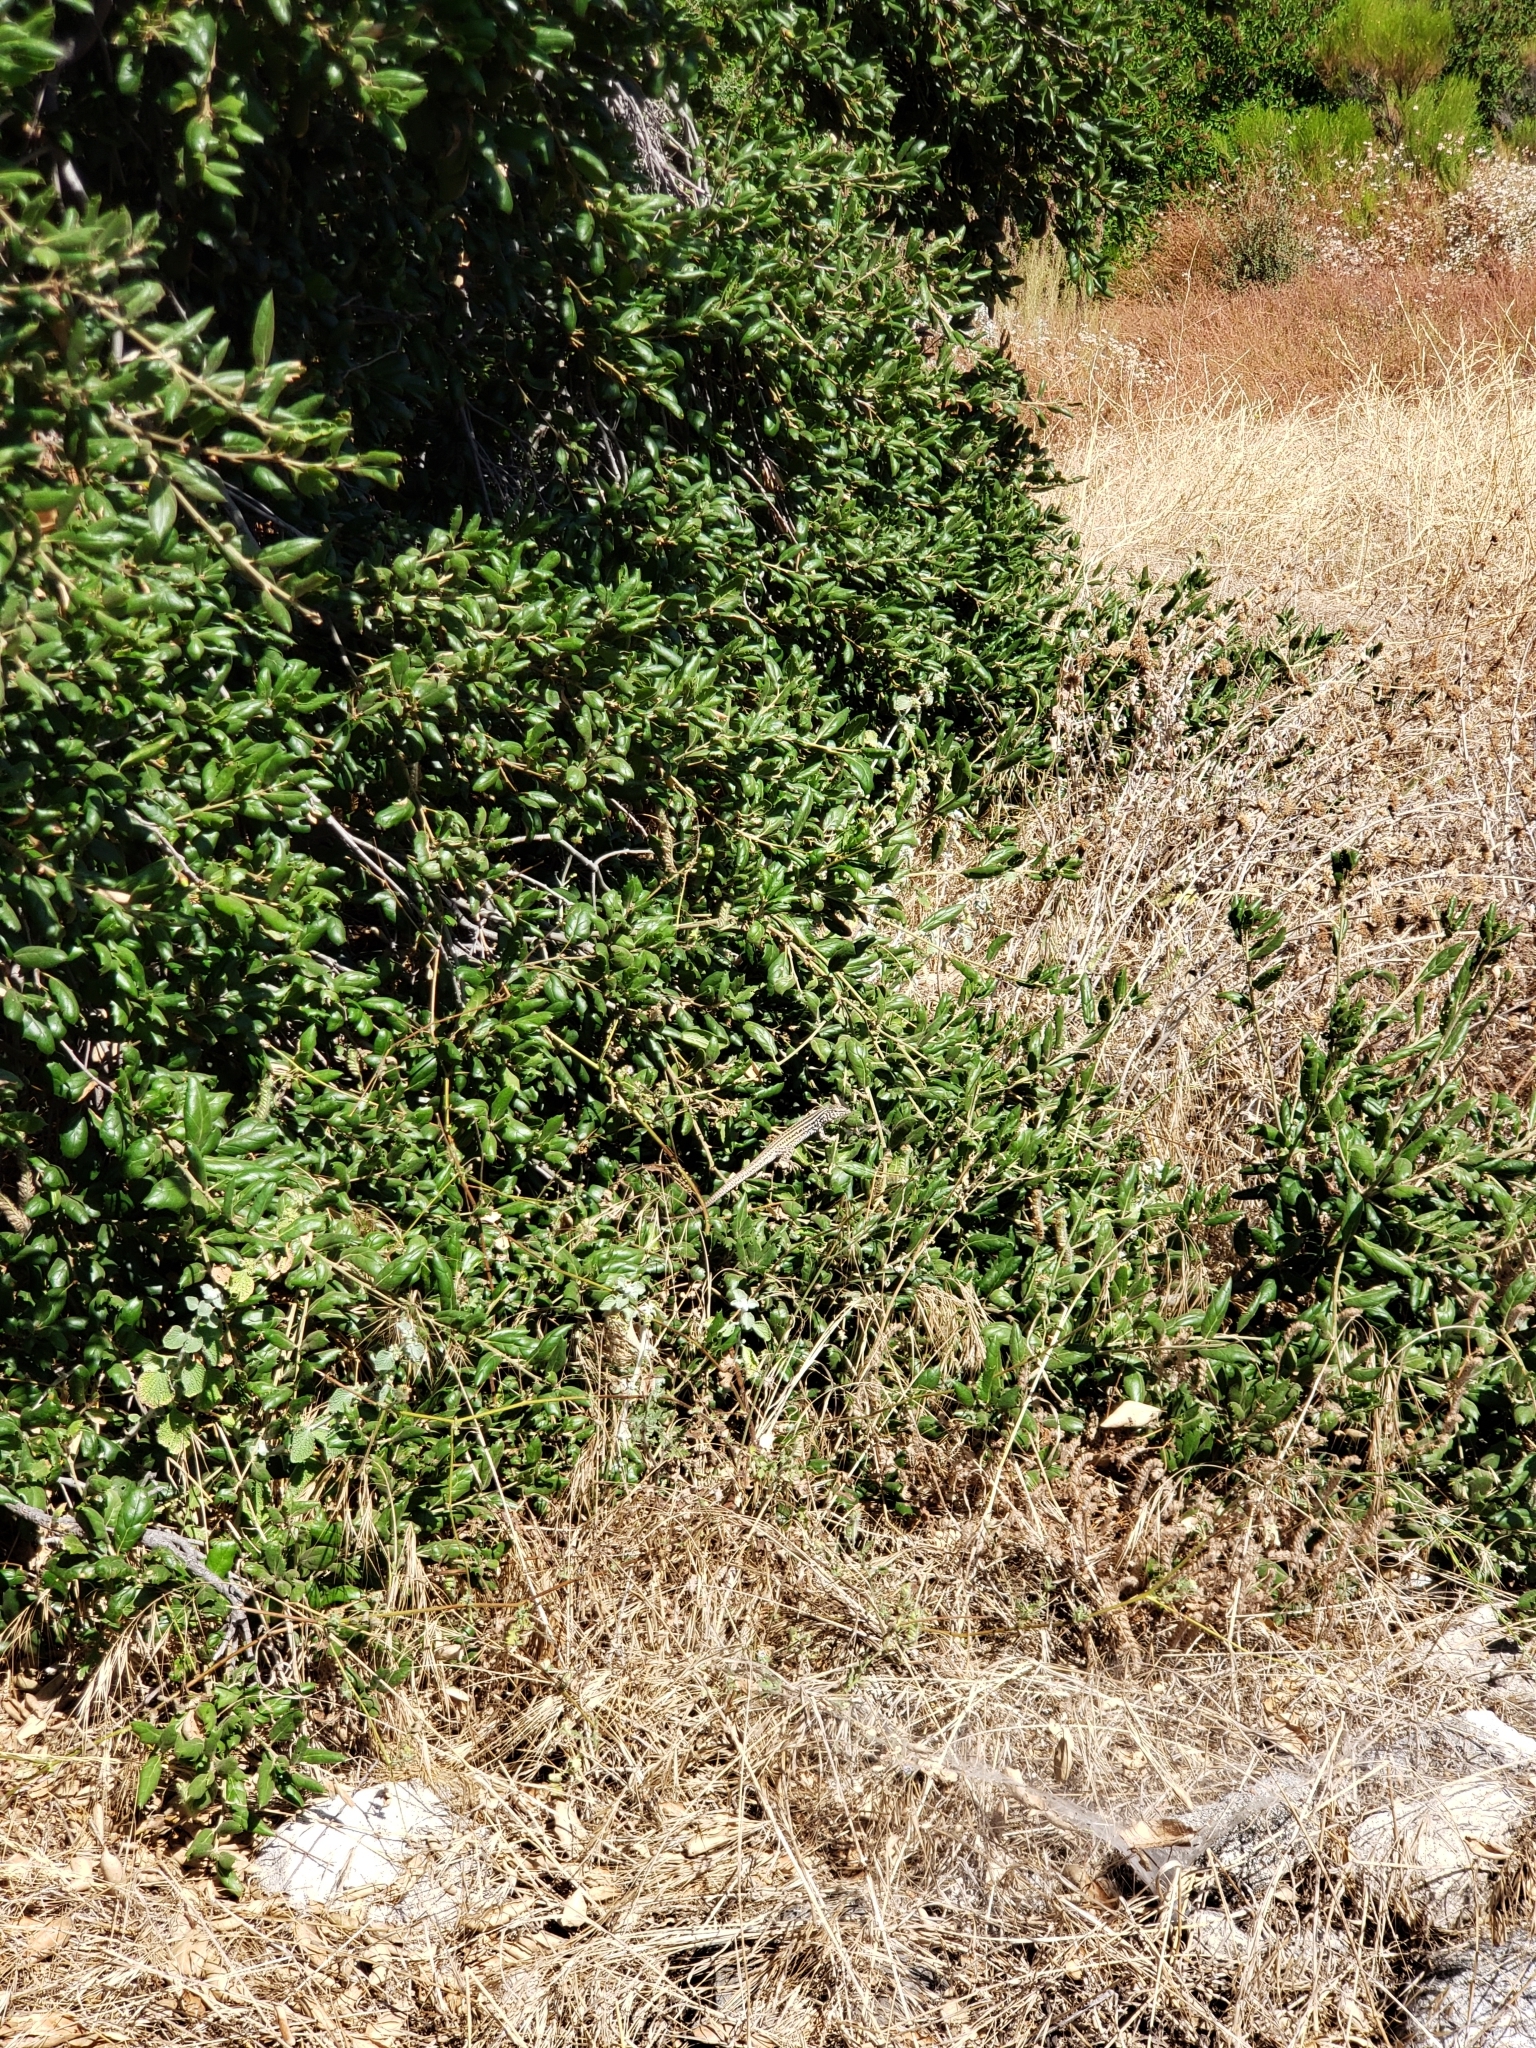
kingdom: Animalia
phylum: Chordata
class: Squamata
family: Teiidae
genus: Aspidoscelis
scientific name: Aspidoscelis tigris
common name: Tiger whiptail
